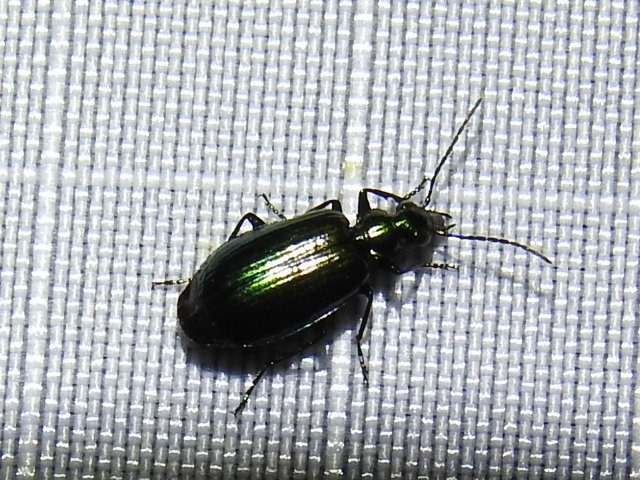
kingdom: Animalia
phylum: Arthropoda
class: Insecta
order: Coleoptera
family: Carabidae
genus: Lebia
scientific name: Lebia viridis
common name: Flower lebia beetle
